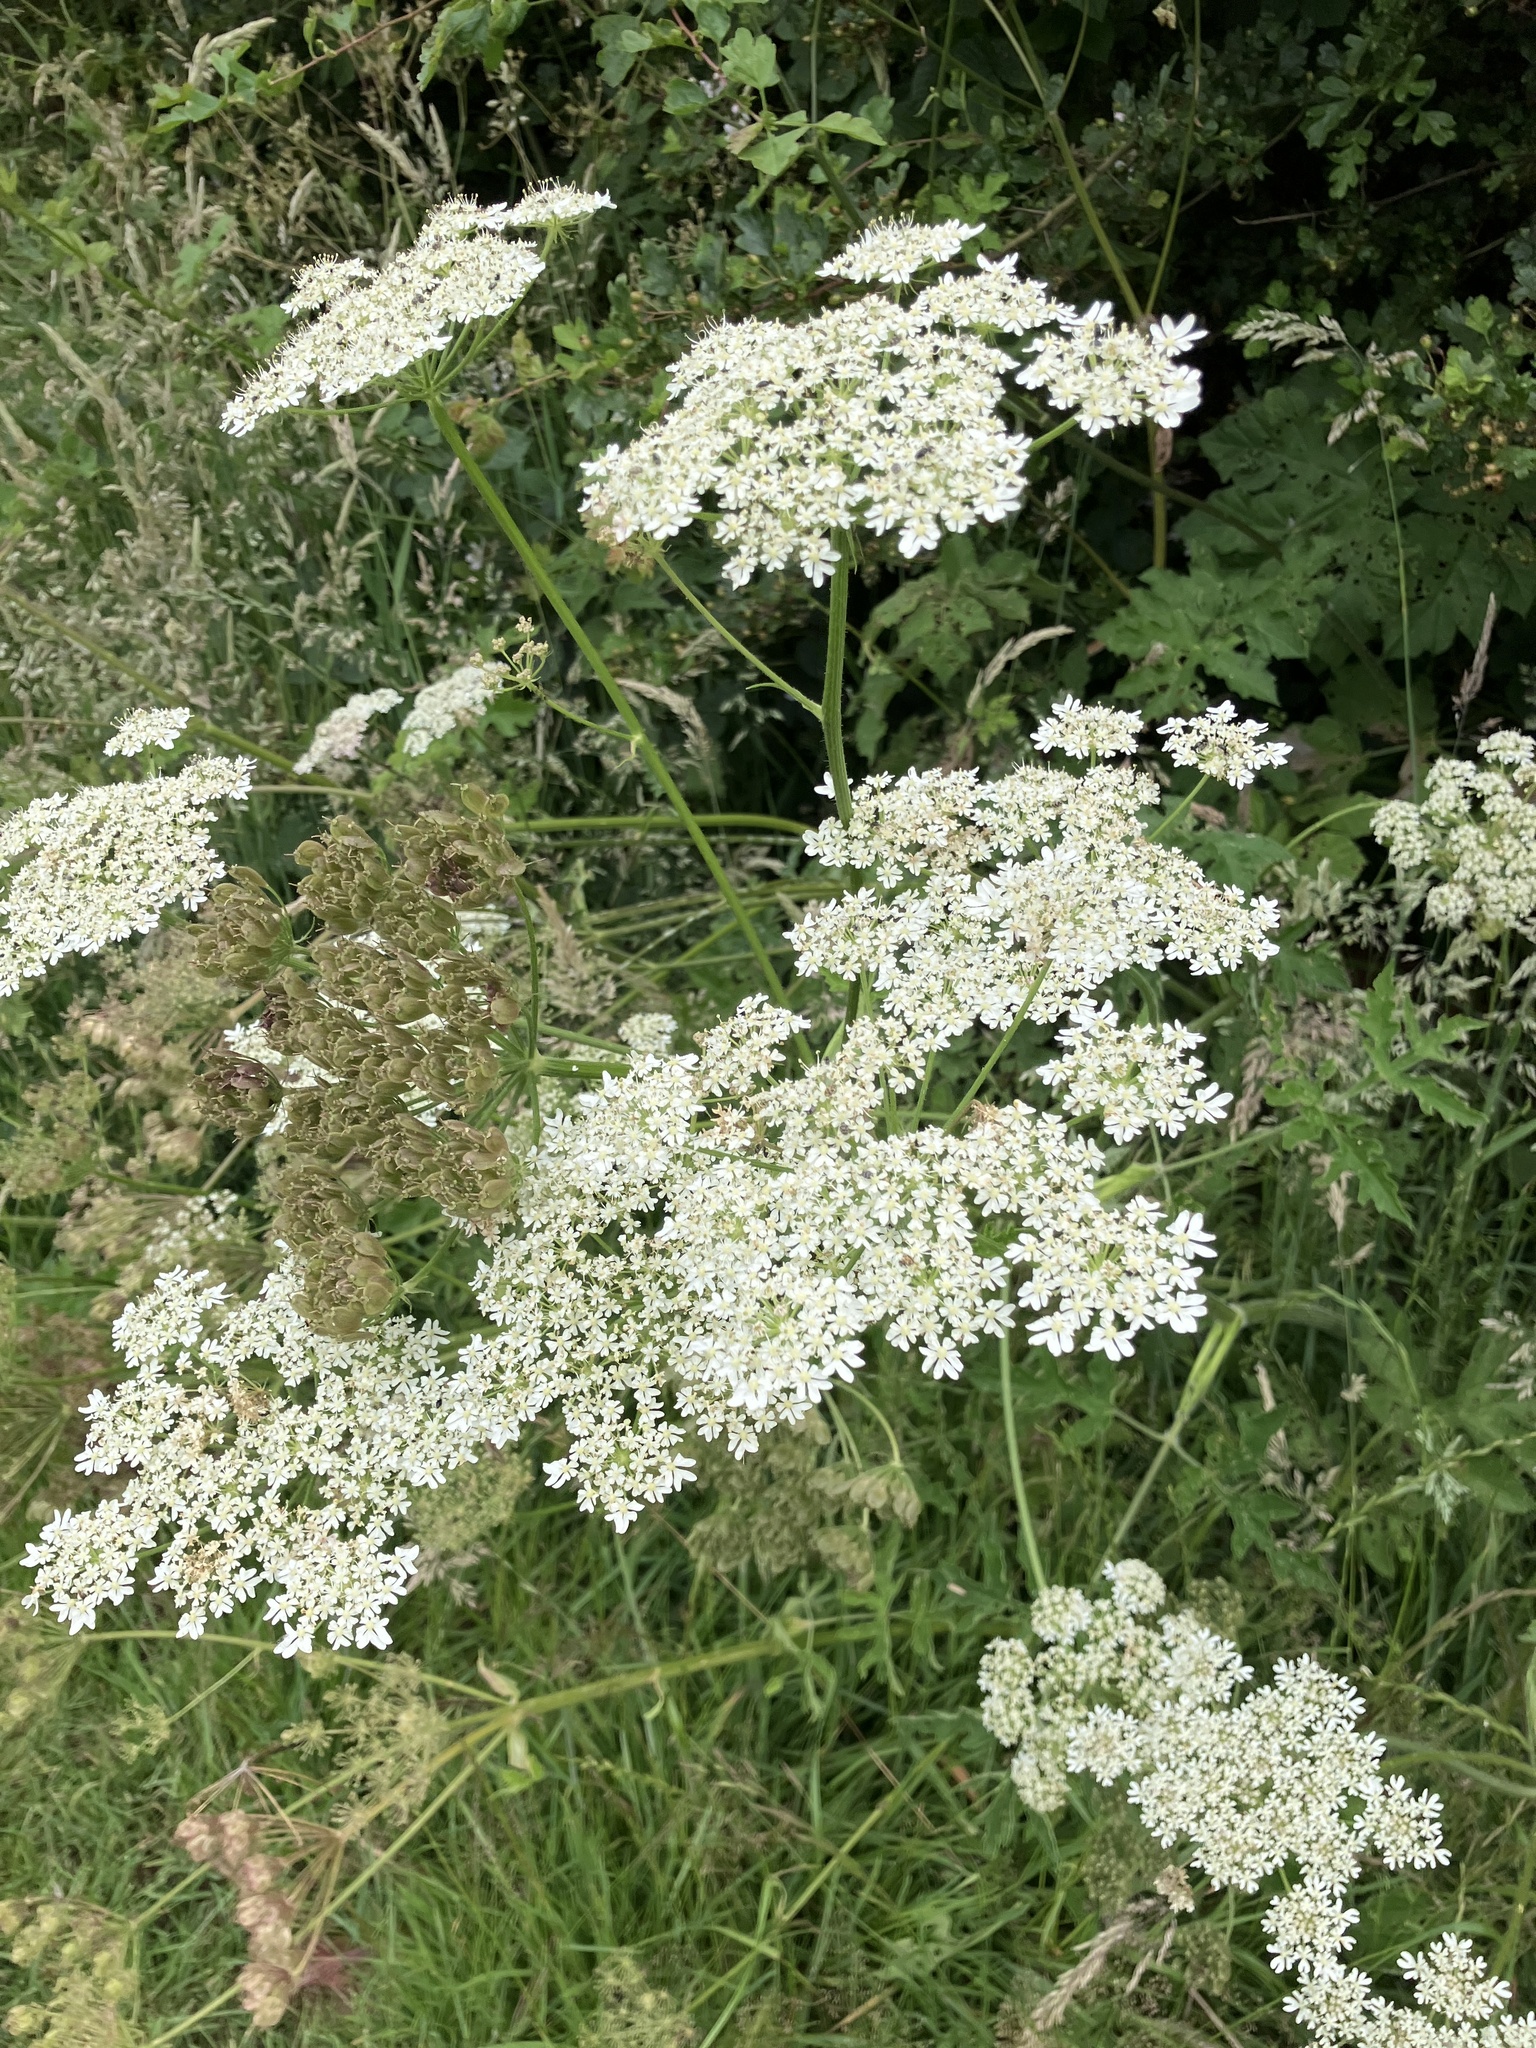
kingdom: Plantae
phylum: Tracheophyta
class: Magnoliopsida
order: Apiales
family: Apiaceae
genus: Heracleum
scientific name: Heracleum sphondylium
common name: Hogweed
